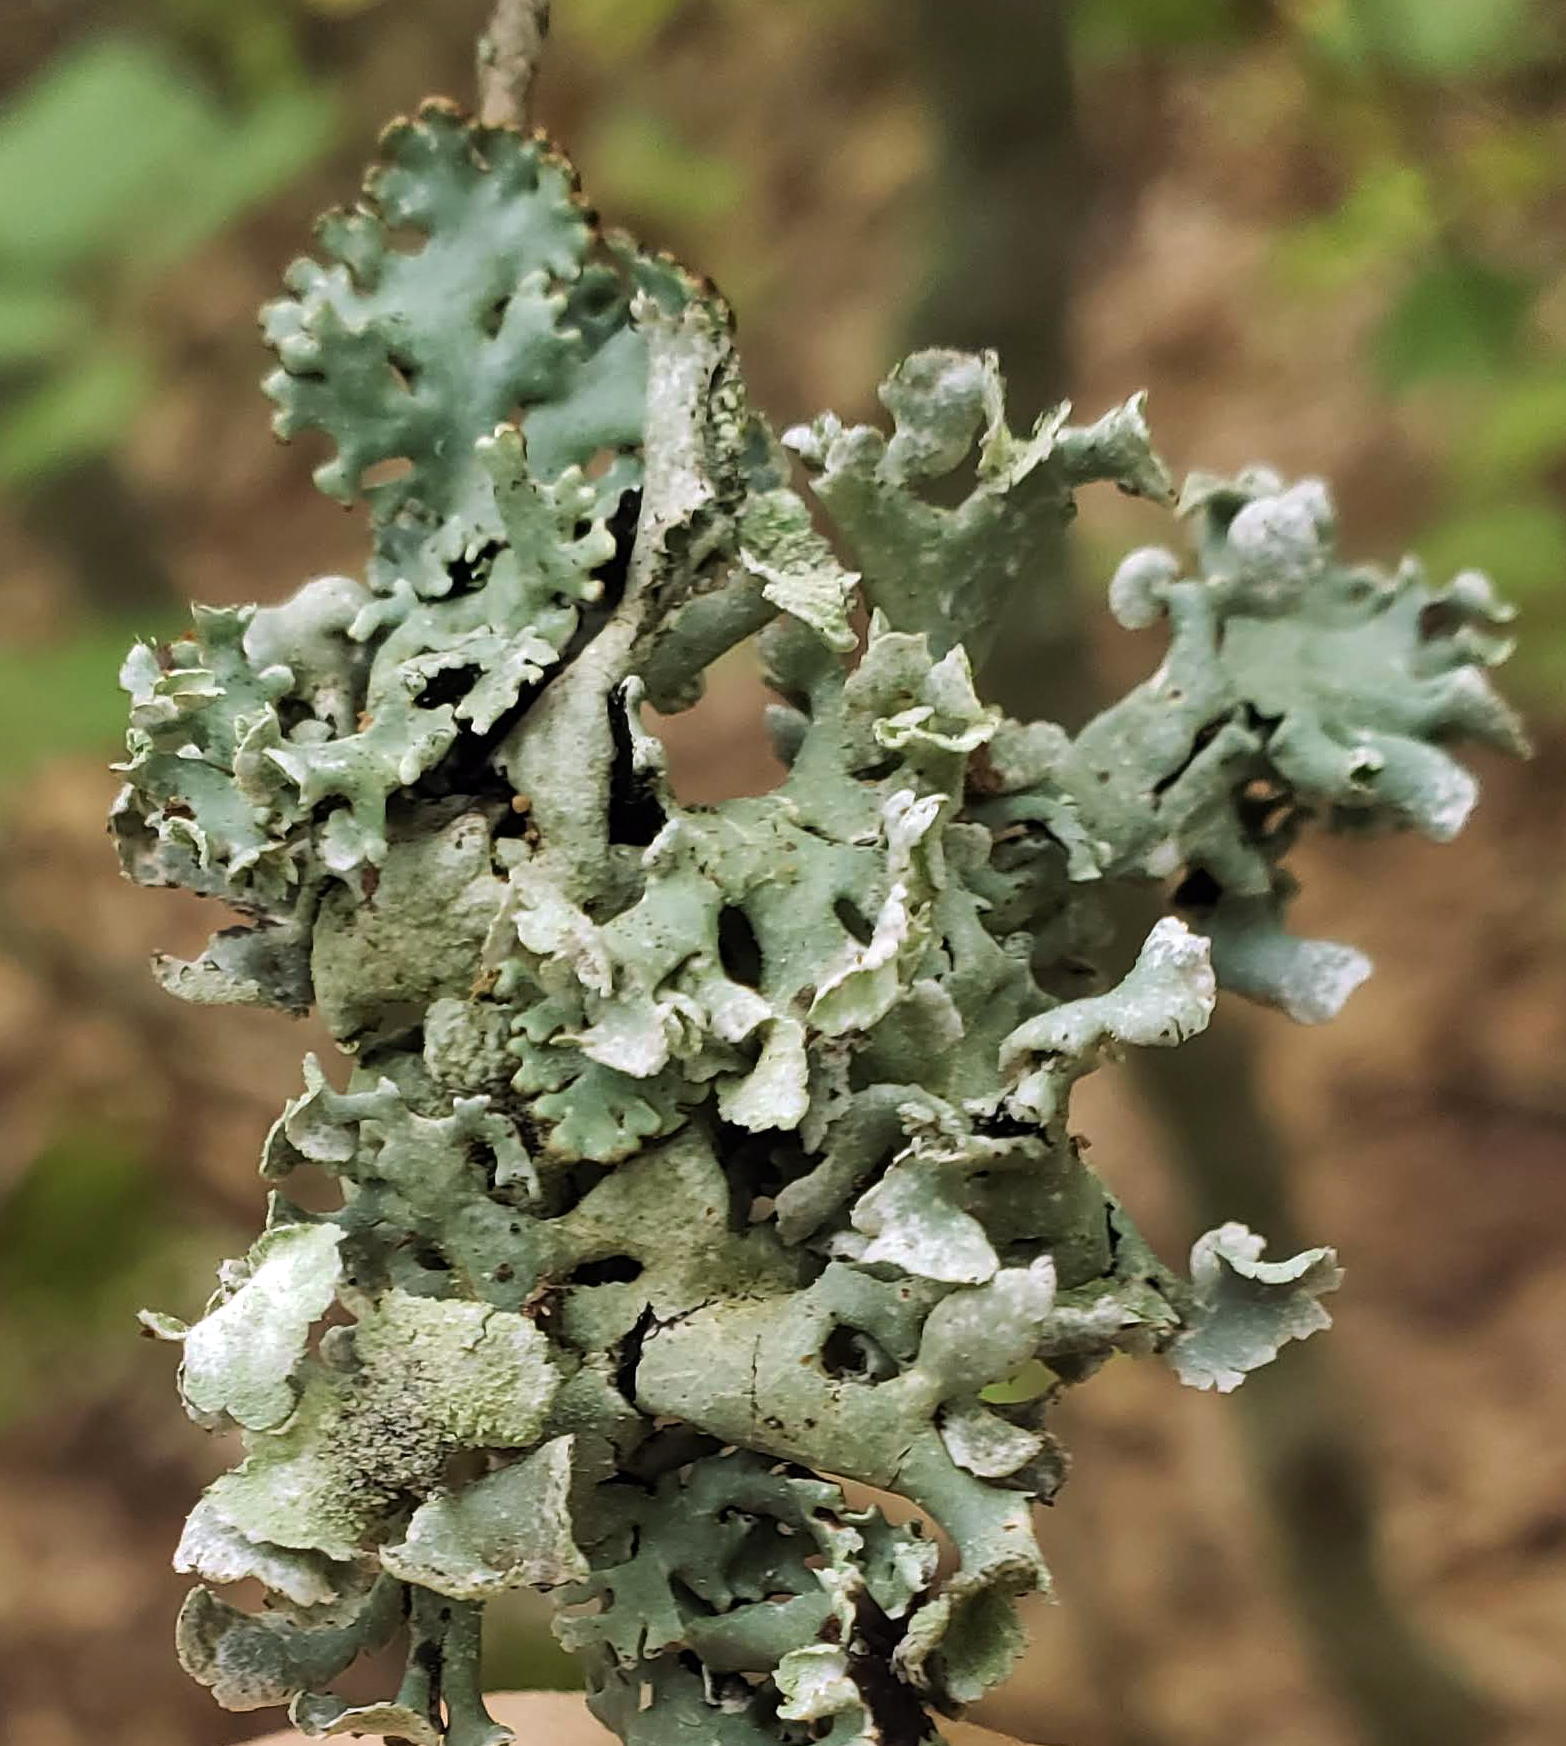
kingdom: Fungi
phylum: Ascomycota
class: Lecanoromycetes
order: Lecanorales
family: Parmeliaceae
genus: Hypogymnia
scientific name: Hypogymnia physodes
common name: Dark crottle
